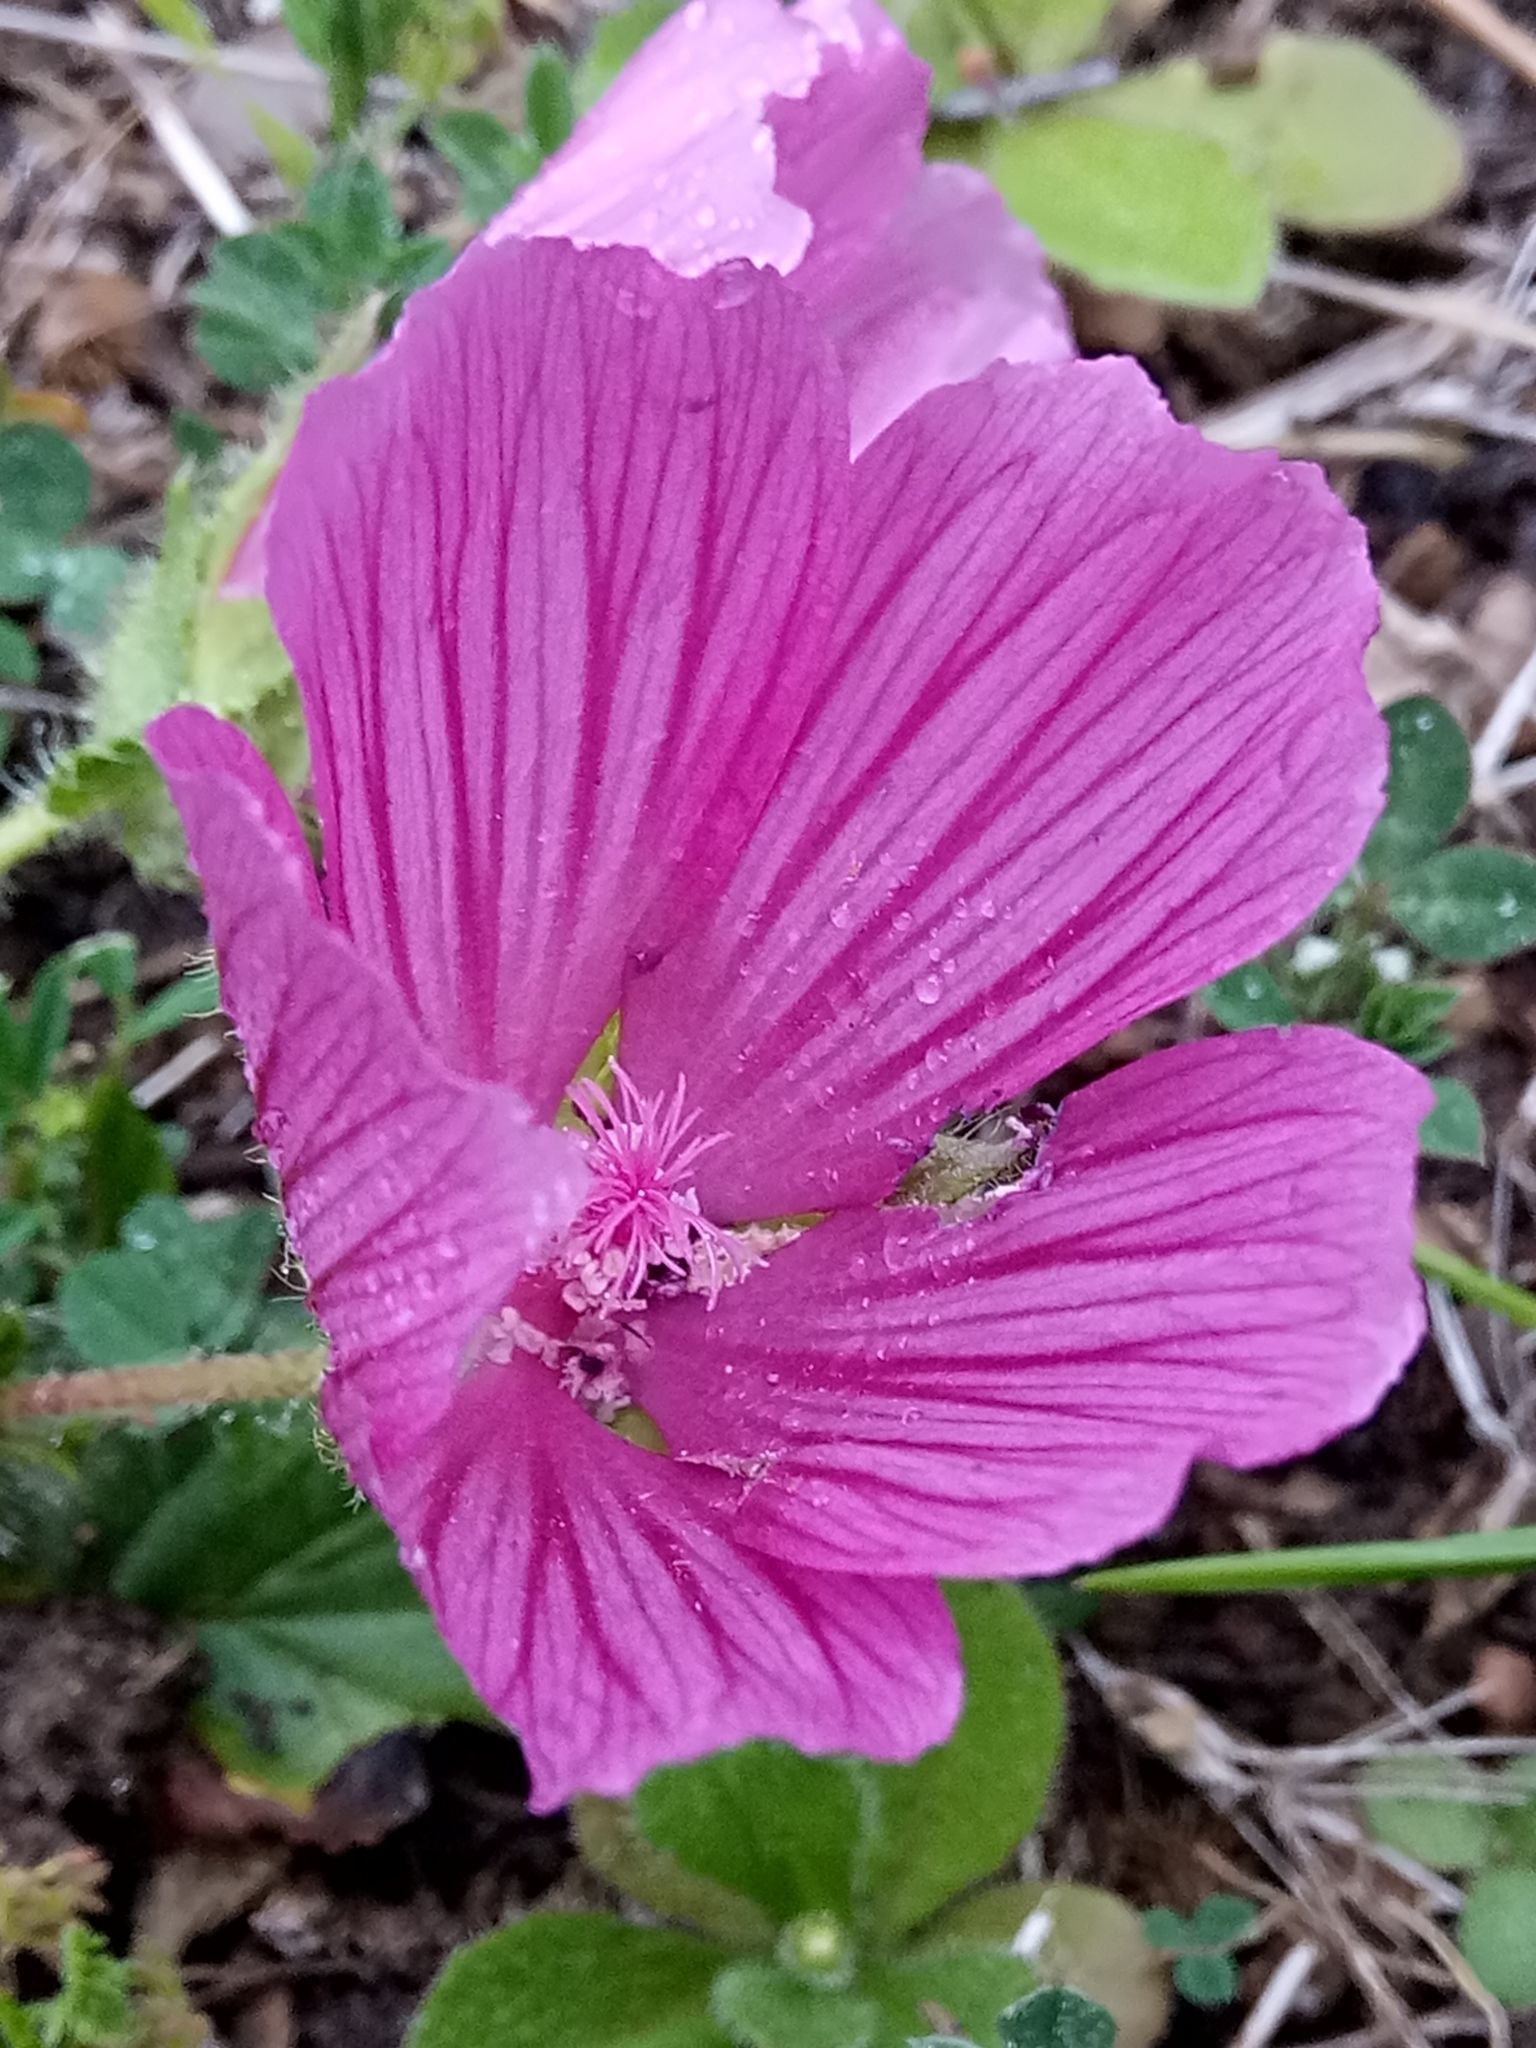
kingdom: Plantae
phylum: Tracheophyta
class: Magnoliopsida
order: Malvales
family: Malvaceae
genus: Malope
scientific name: Malope malacoides
